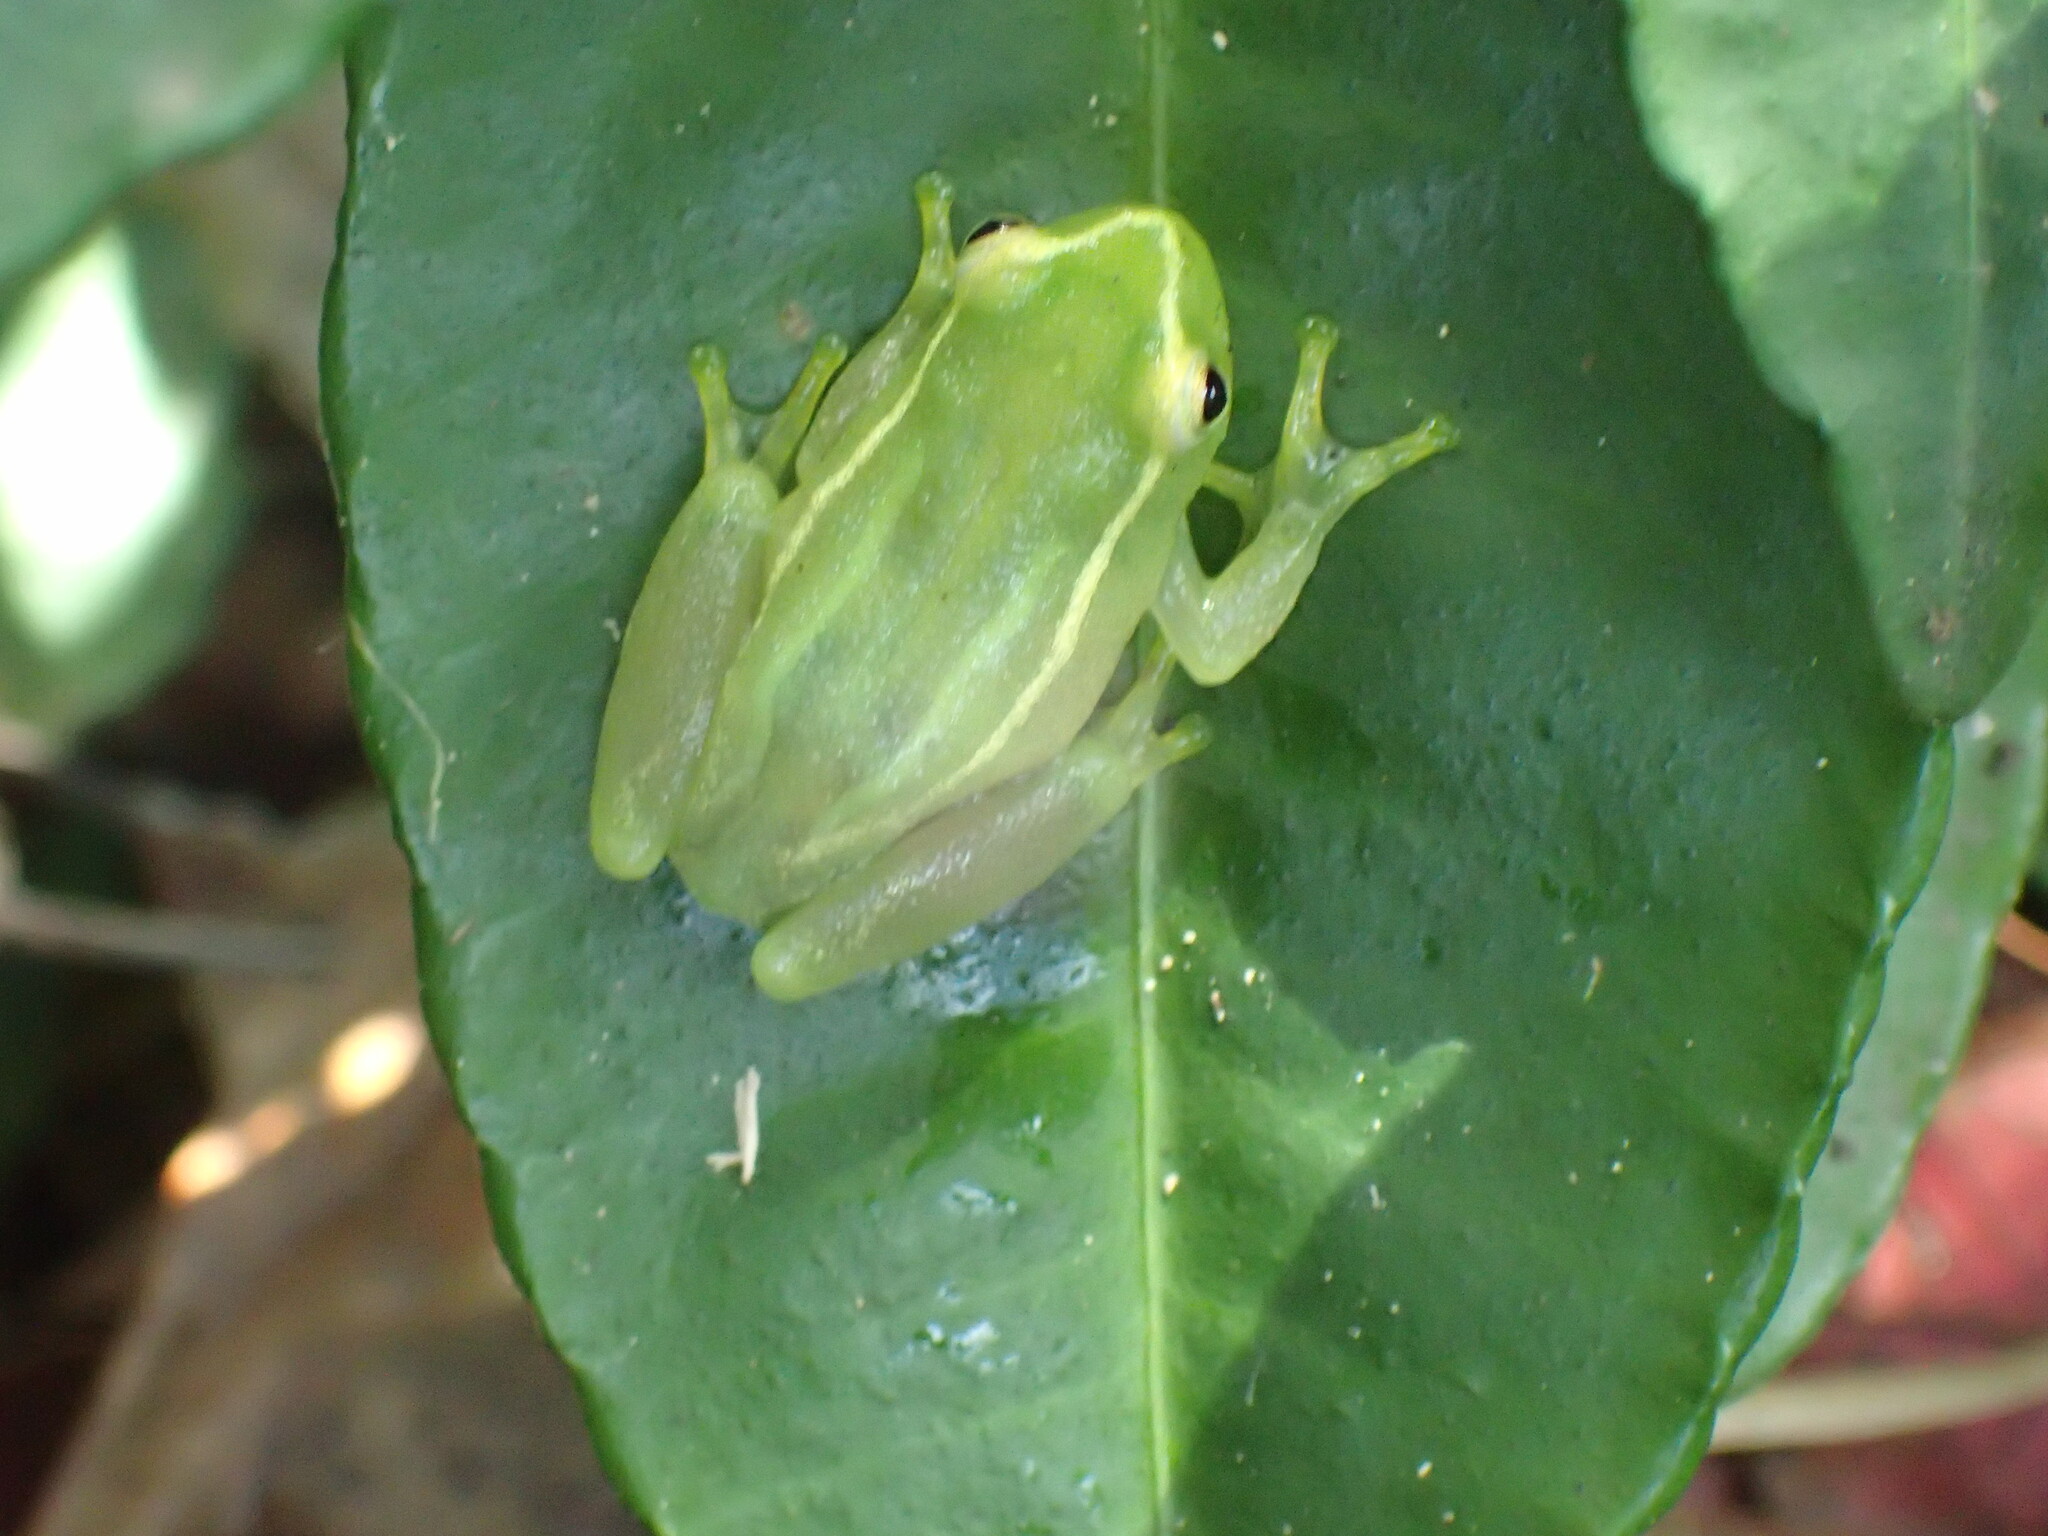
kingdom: Animalia
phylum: Chordata
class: Amphibia
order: Anura
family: Hyperoliidae
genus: Hyperolius
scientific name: Hyperolius pusillus
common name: Water lily reed frog
